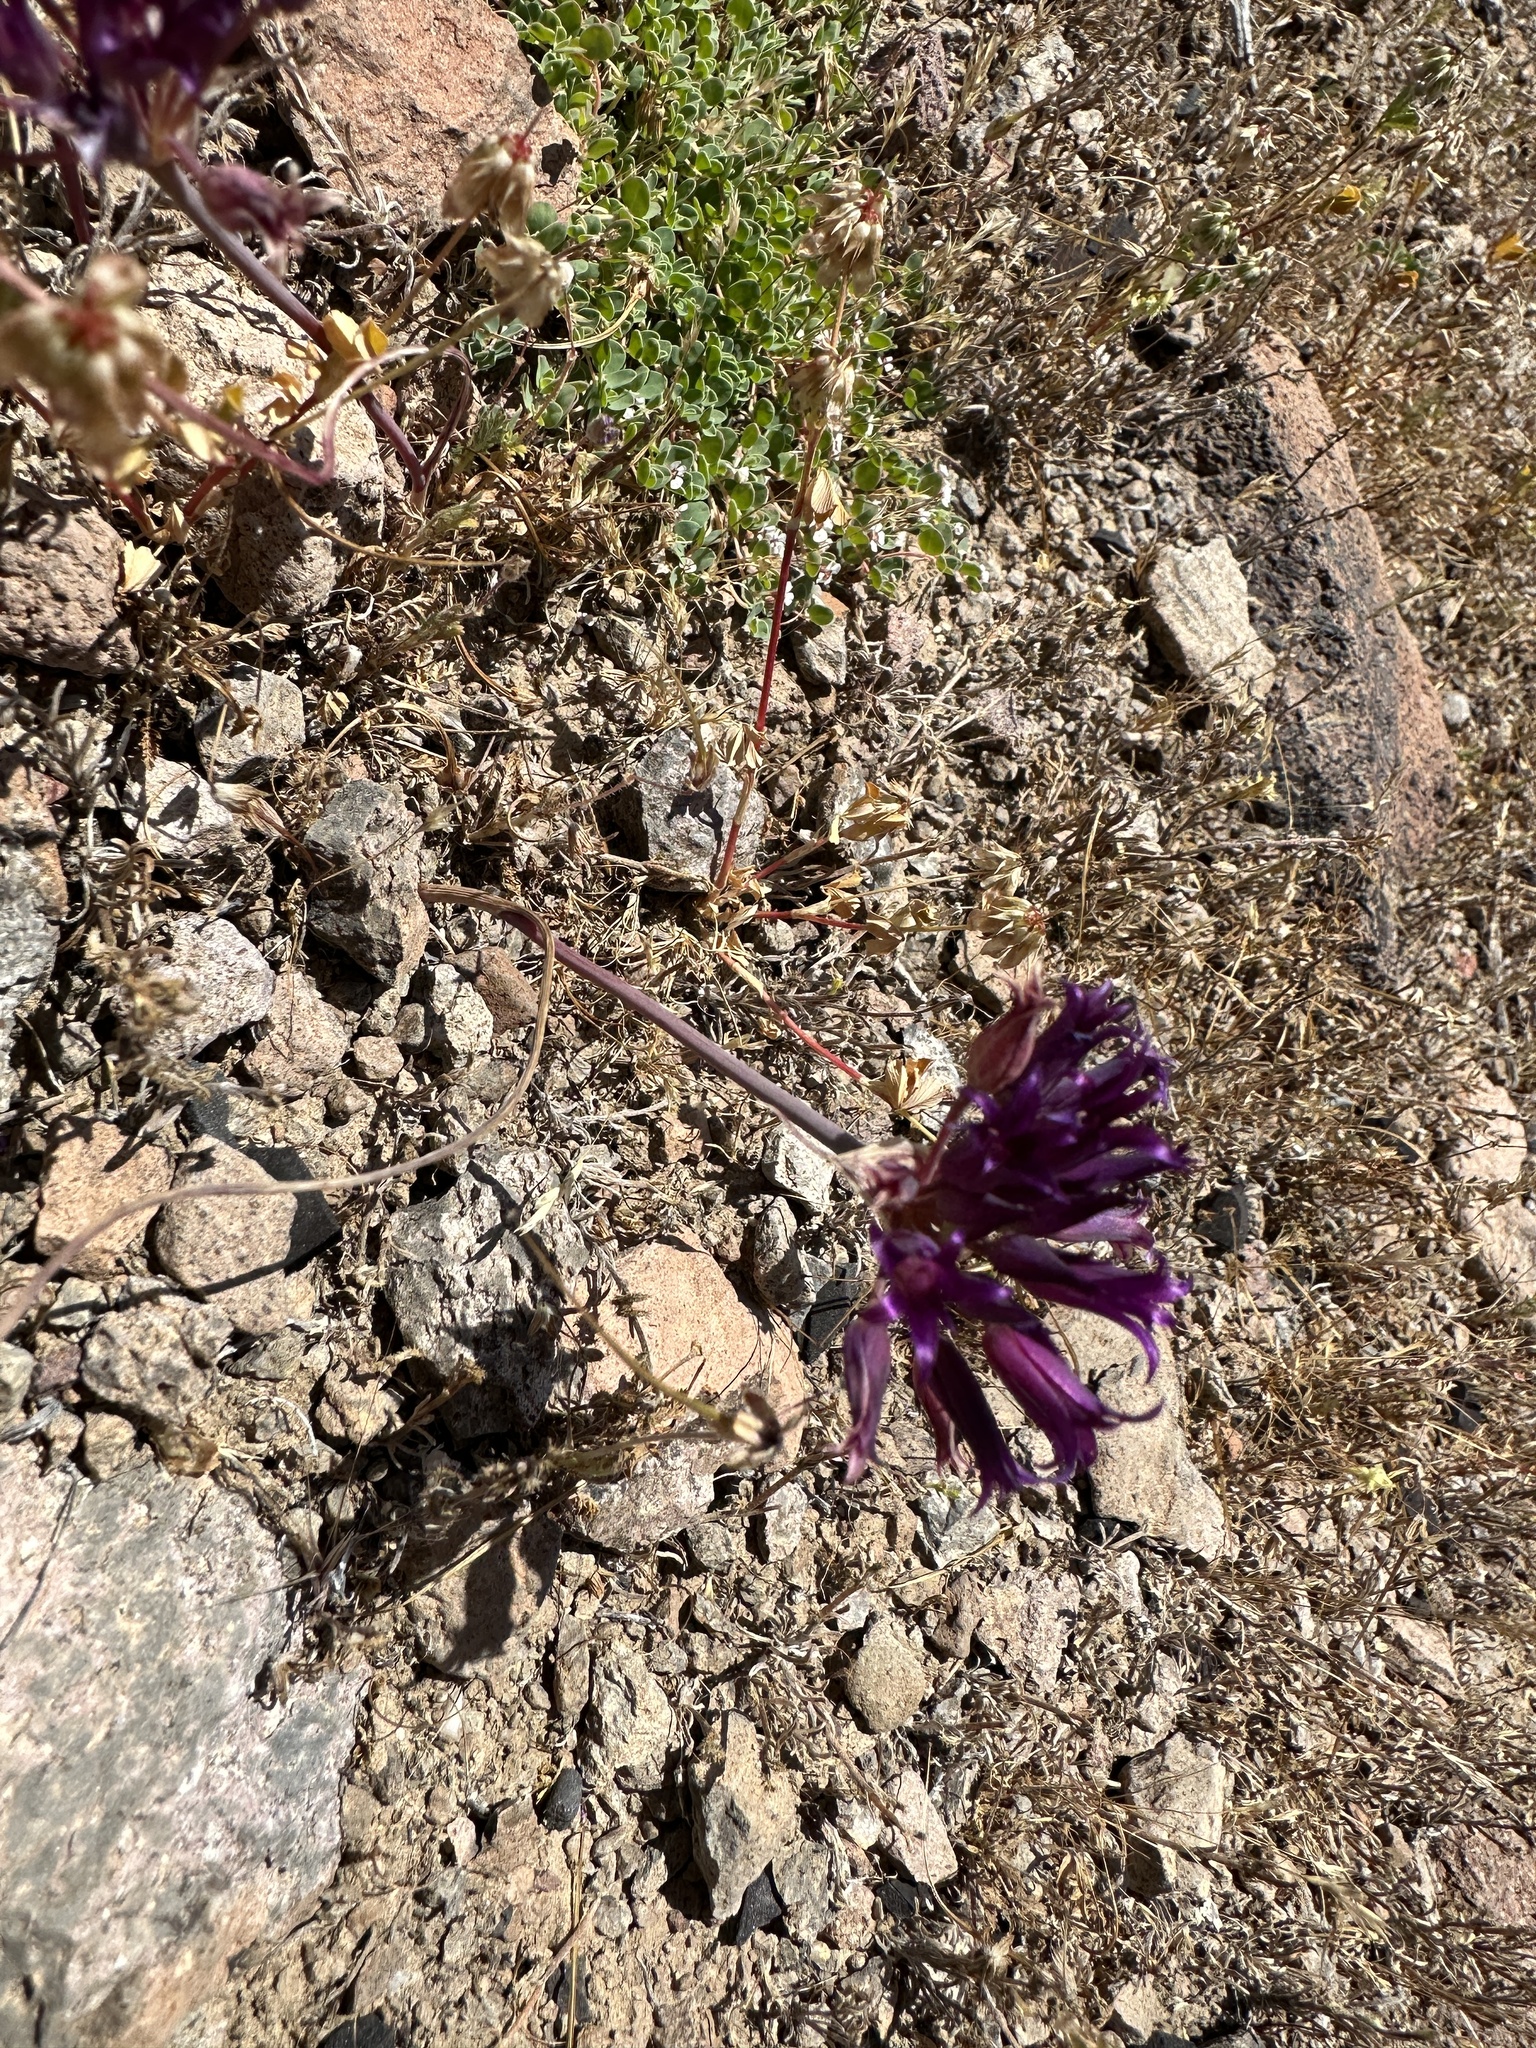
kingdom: Plantae
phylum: Tracheophyta
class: Liliopsida
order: Asparagales
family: Amaryllidaceae
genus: Allium
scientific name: Allium fimbriatum
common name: Fringed onion
